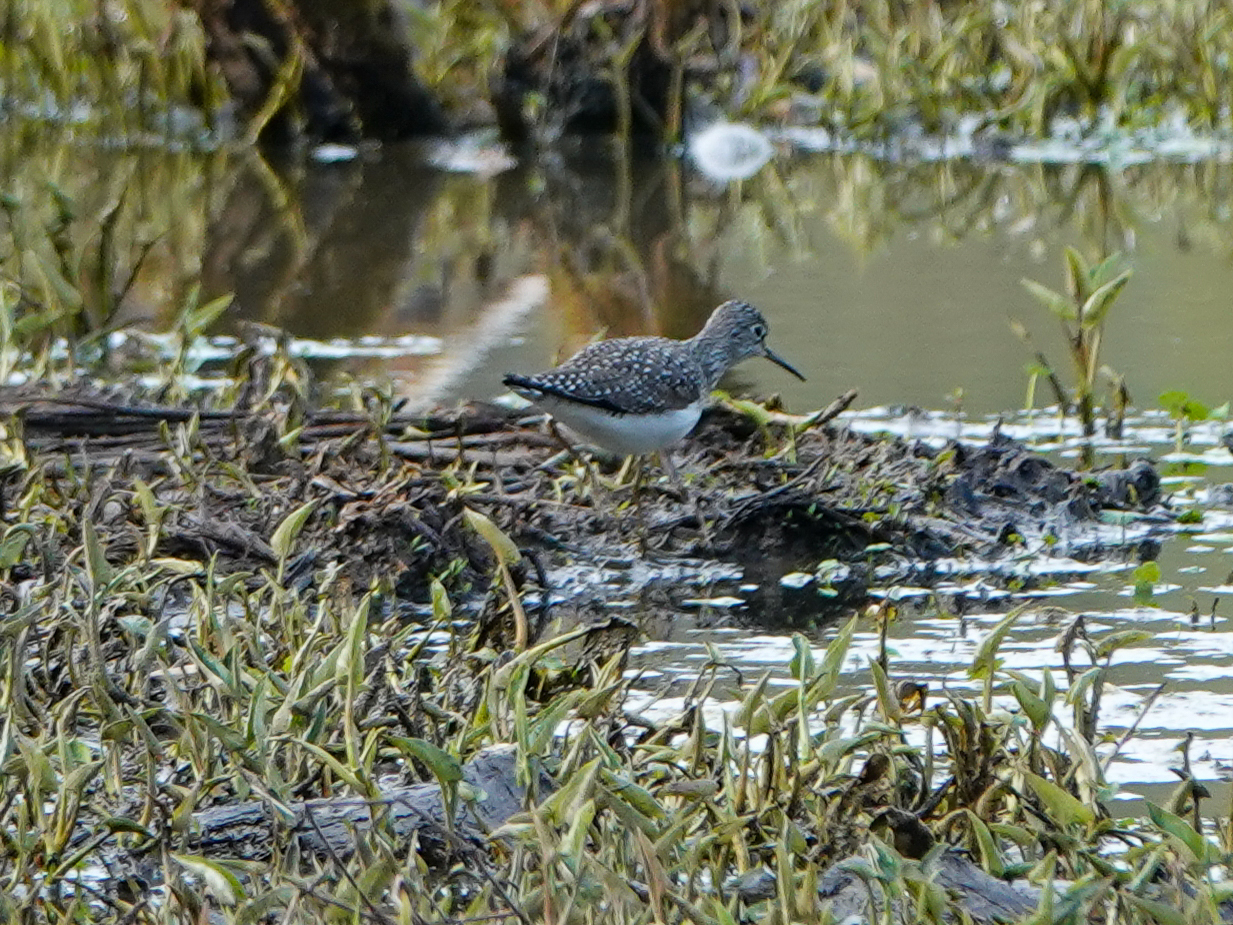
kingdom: Animalia
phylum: Chordata
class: Aves
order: Charadriiformes
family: Scolopacidae
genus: Tringa
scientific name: Tringa solitaria
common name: Solitary sandpiper
